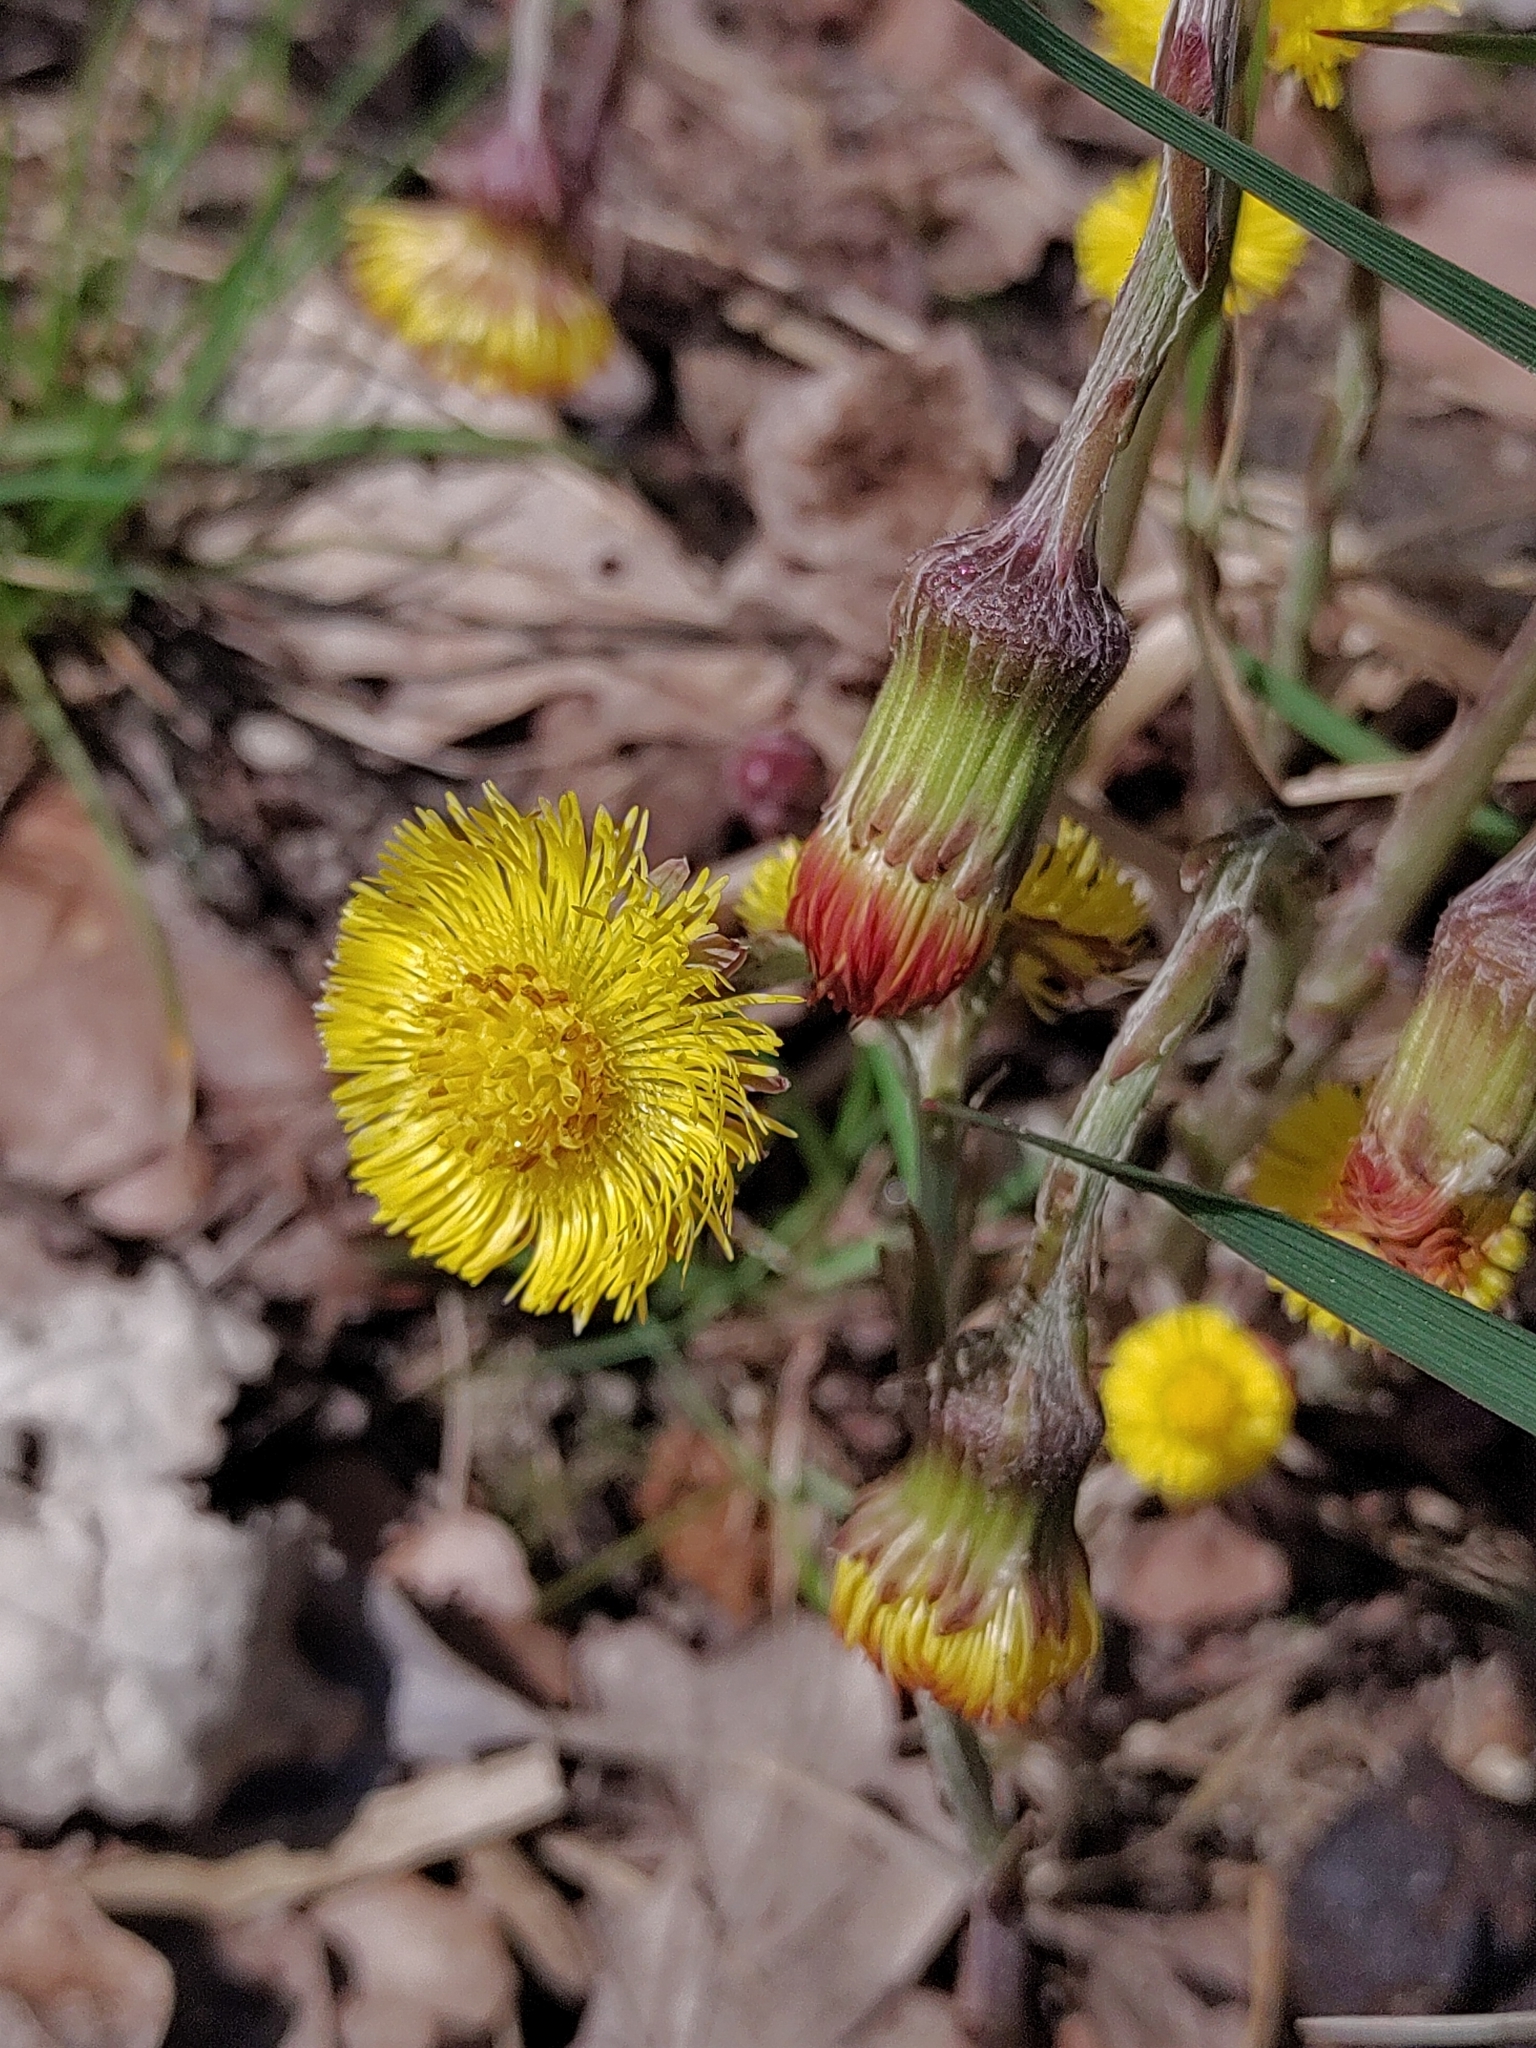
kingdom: Plantae
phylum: Tracheophyta
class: Magnoliopsida
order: Asterales
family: Asteraceae
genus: Tussilago
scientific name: Tussilago farfara
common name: Coltsfoot
